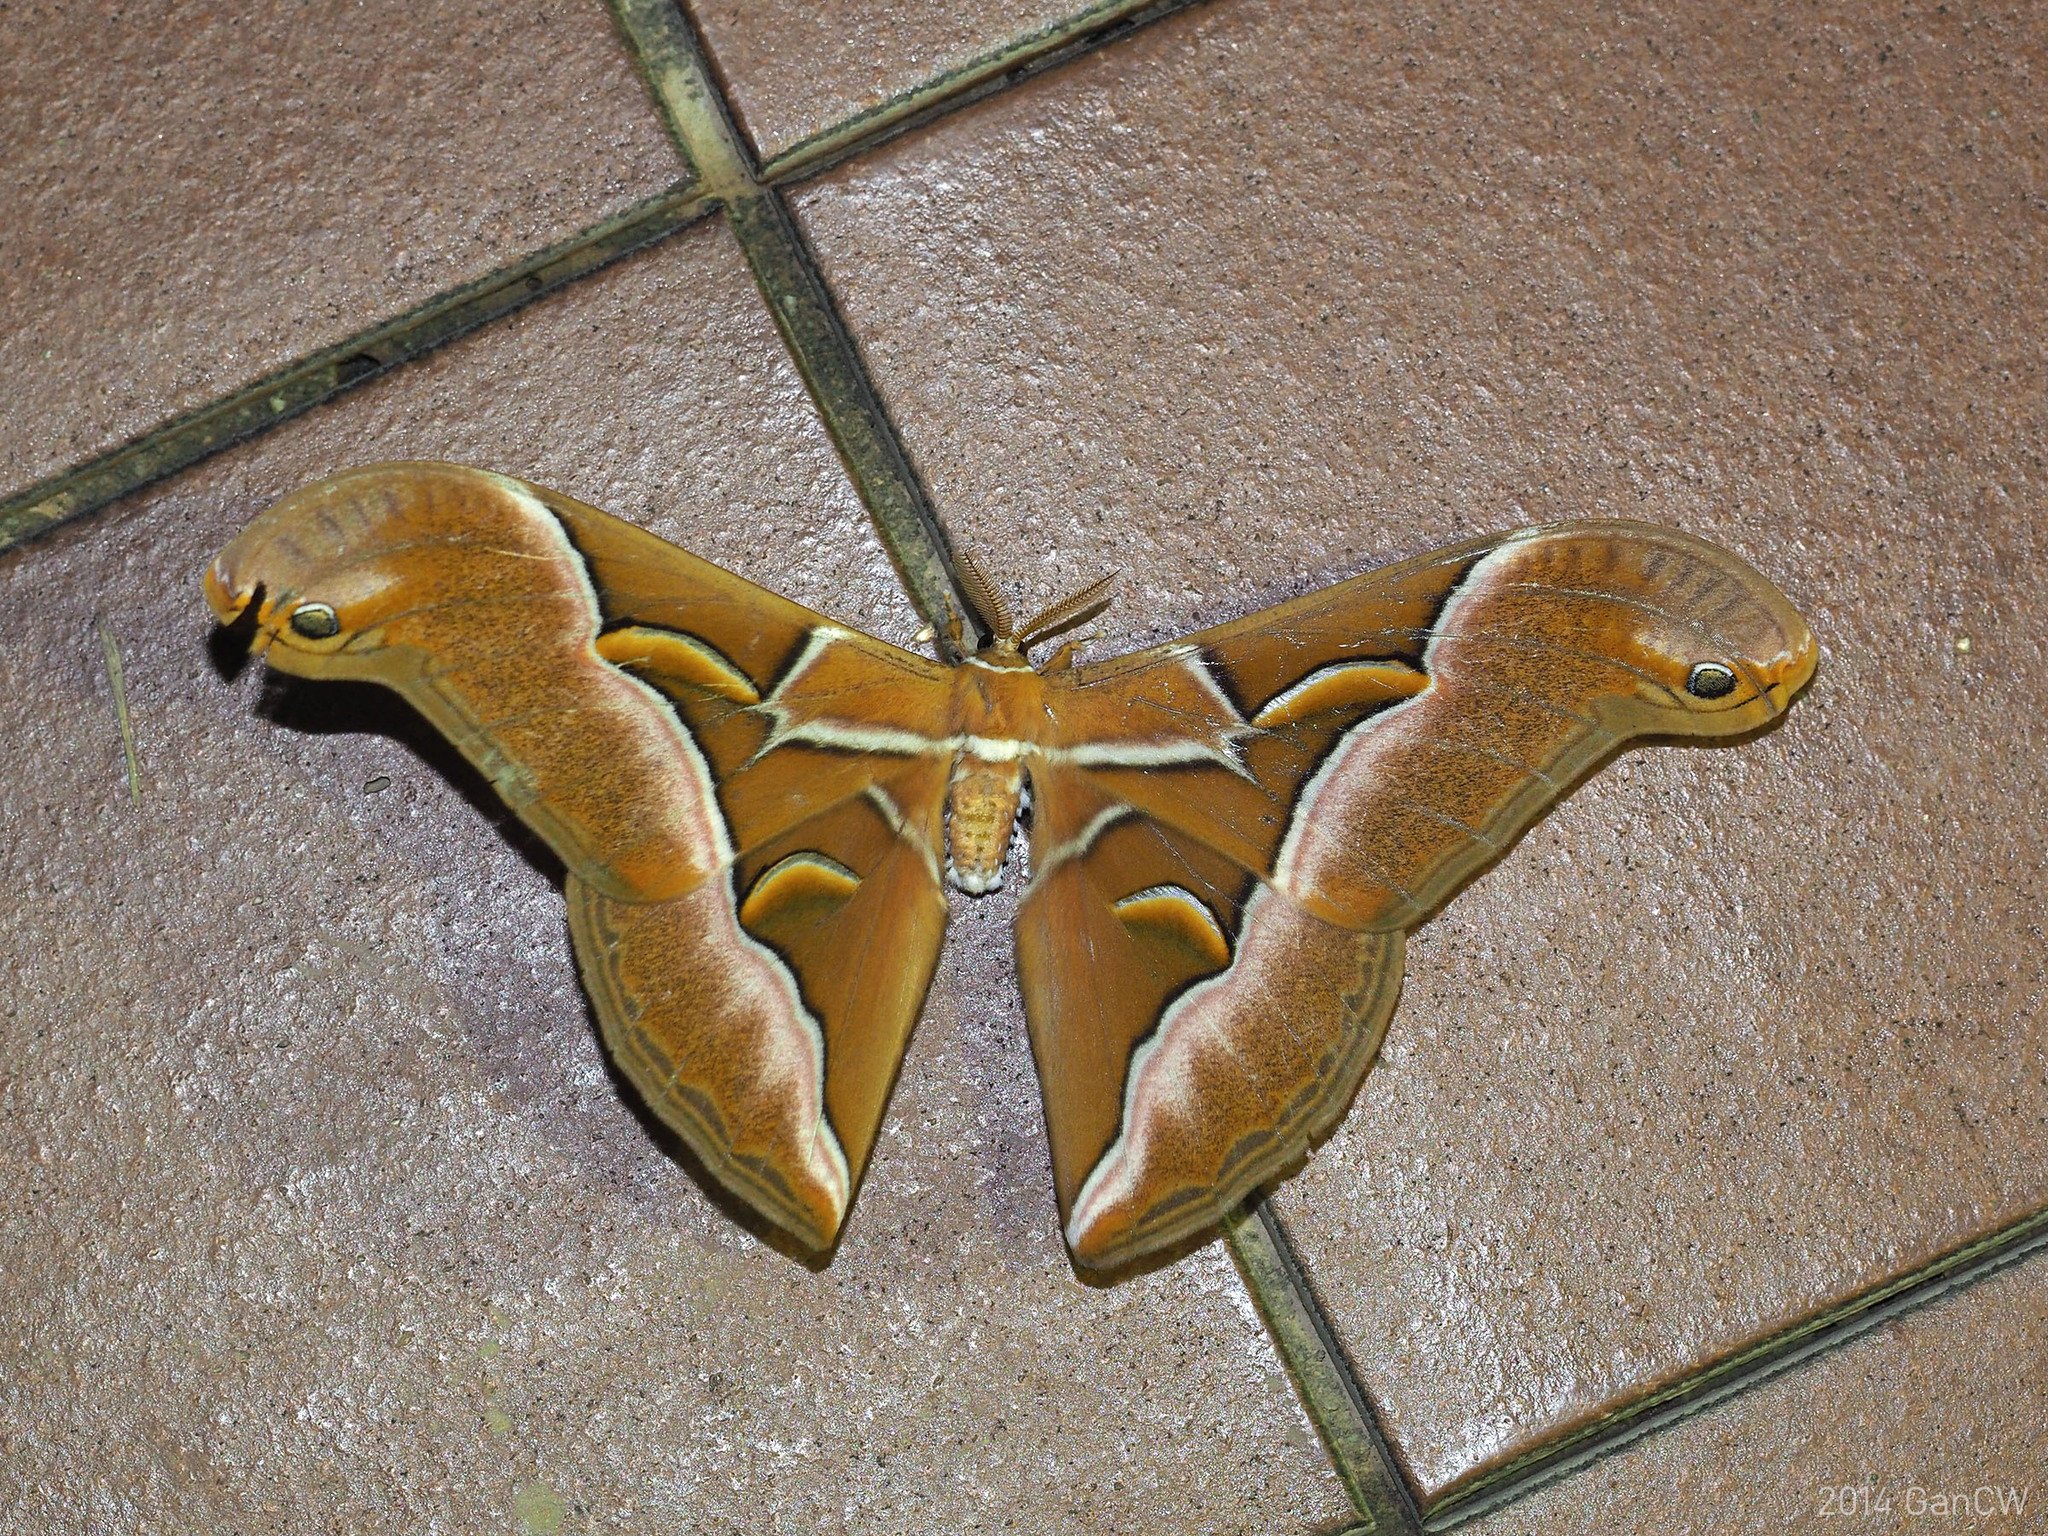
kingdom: Animalia
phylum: Arthropoda
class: Insecta
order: Lepidoptera
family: Saturniidae
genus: Samia
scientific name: Samia kohlli
